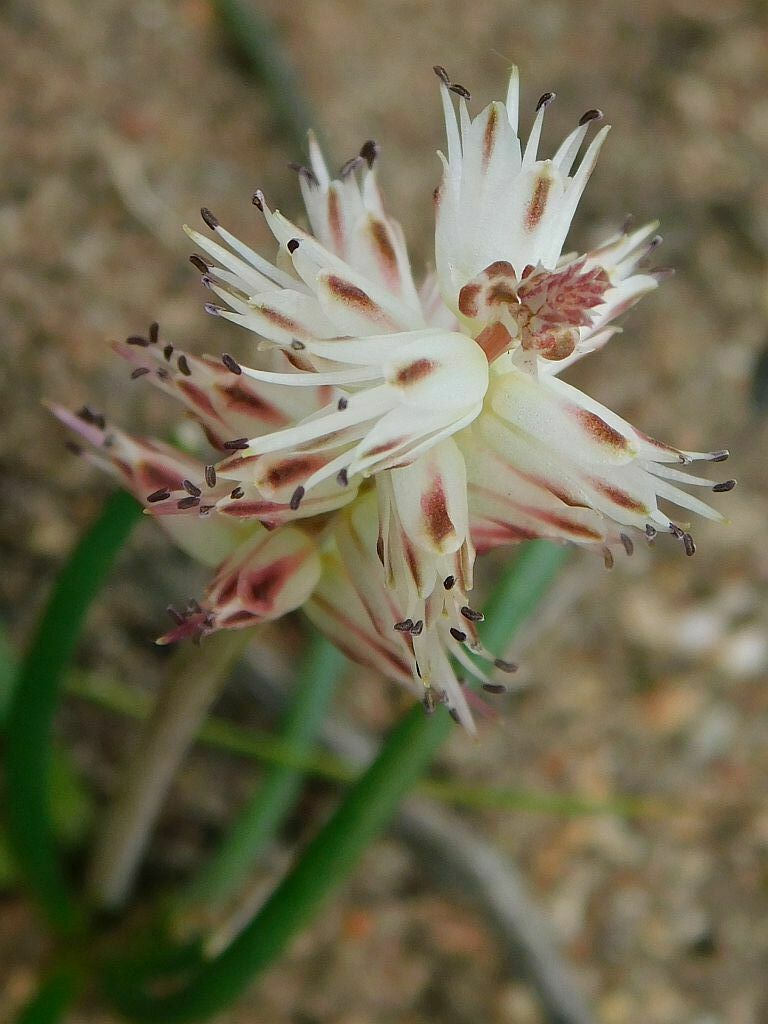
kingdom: Plantae
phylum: Tracheophyta
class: Liliopsida
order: Asparagales
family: Asparagaceae
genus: Lachenalia
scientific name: Lachenalia juncifolia
